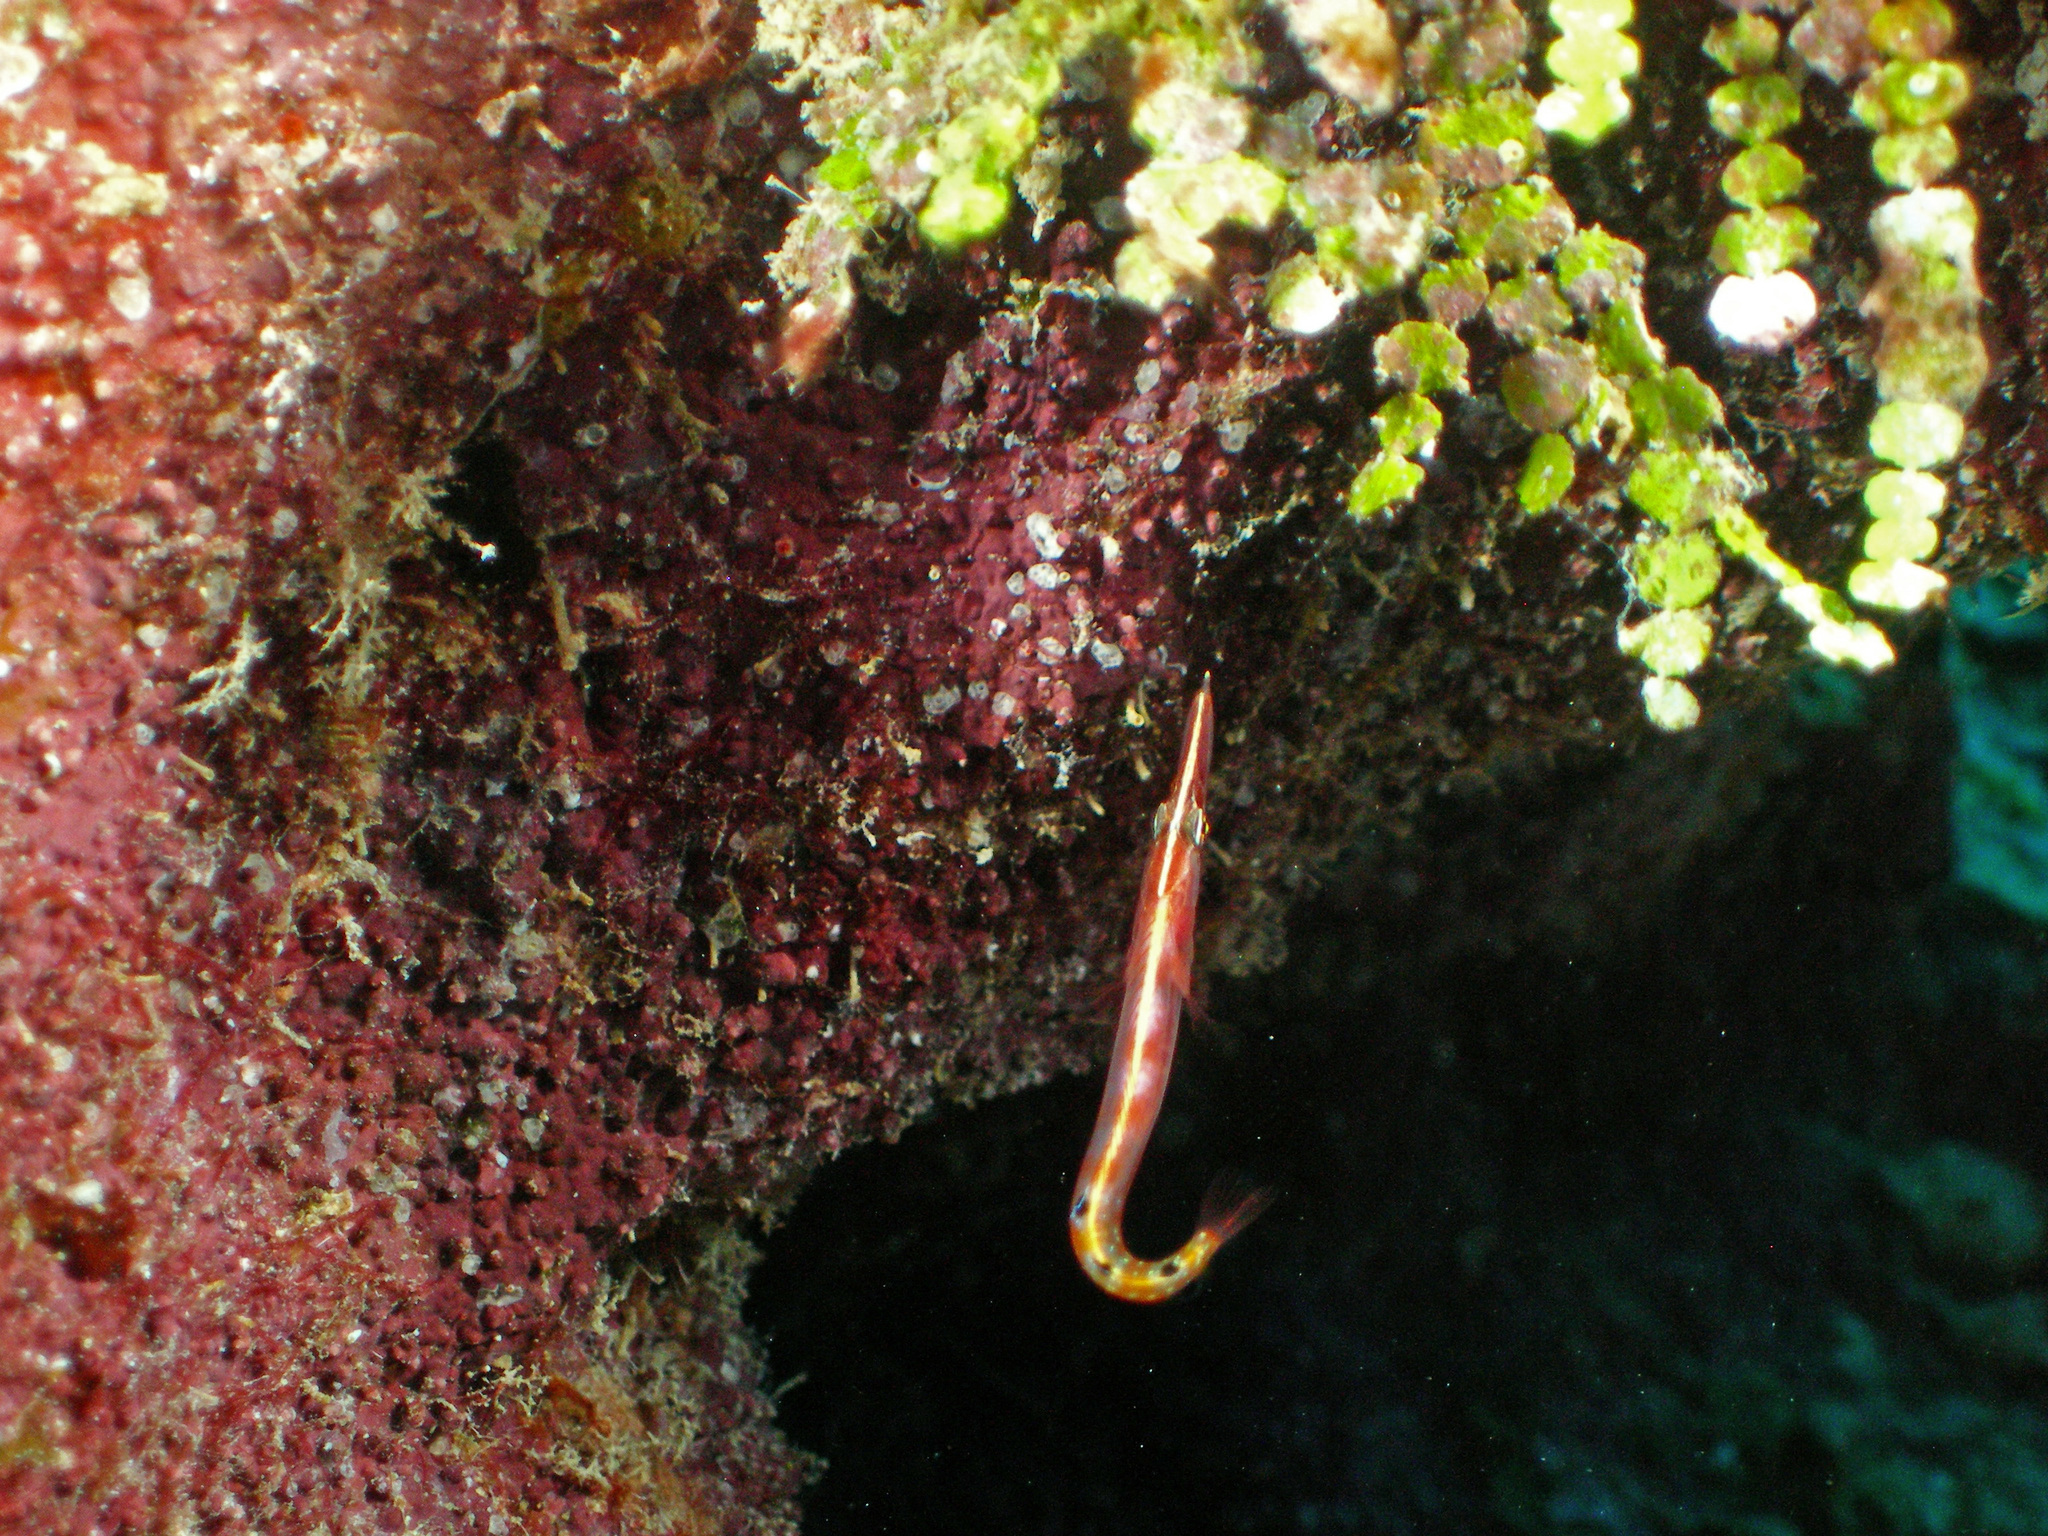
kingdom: Animalia
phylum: Chordata
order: Perciformes
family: Chaenopsidae
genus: Lucayablennius
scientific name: Lucayablennius zingaro
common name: Arrow blenny
